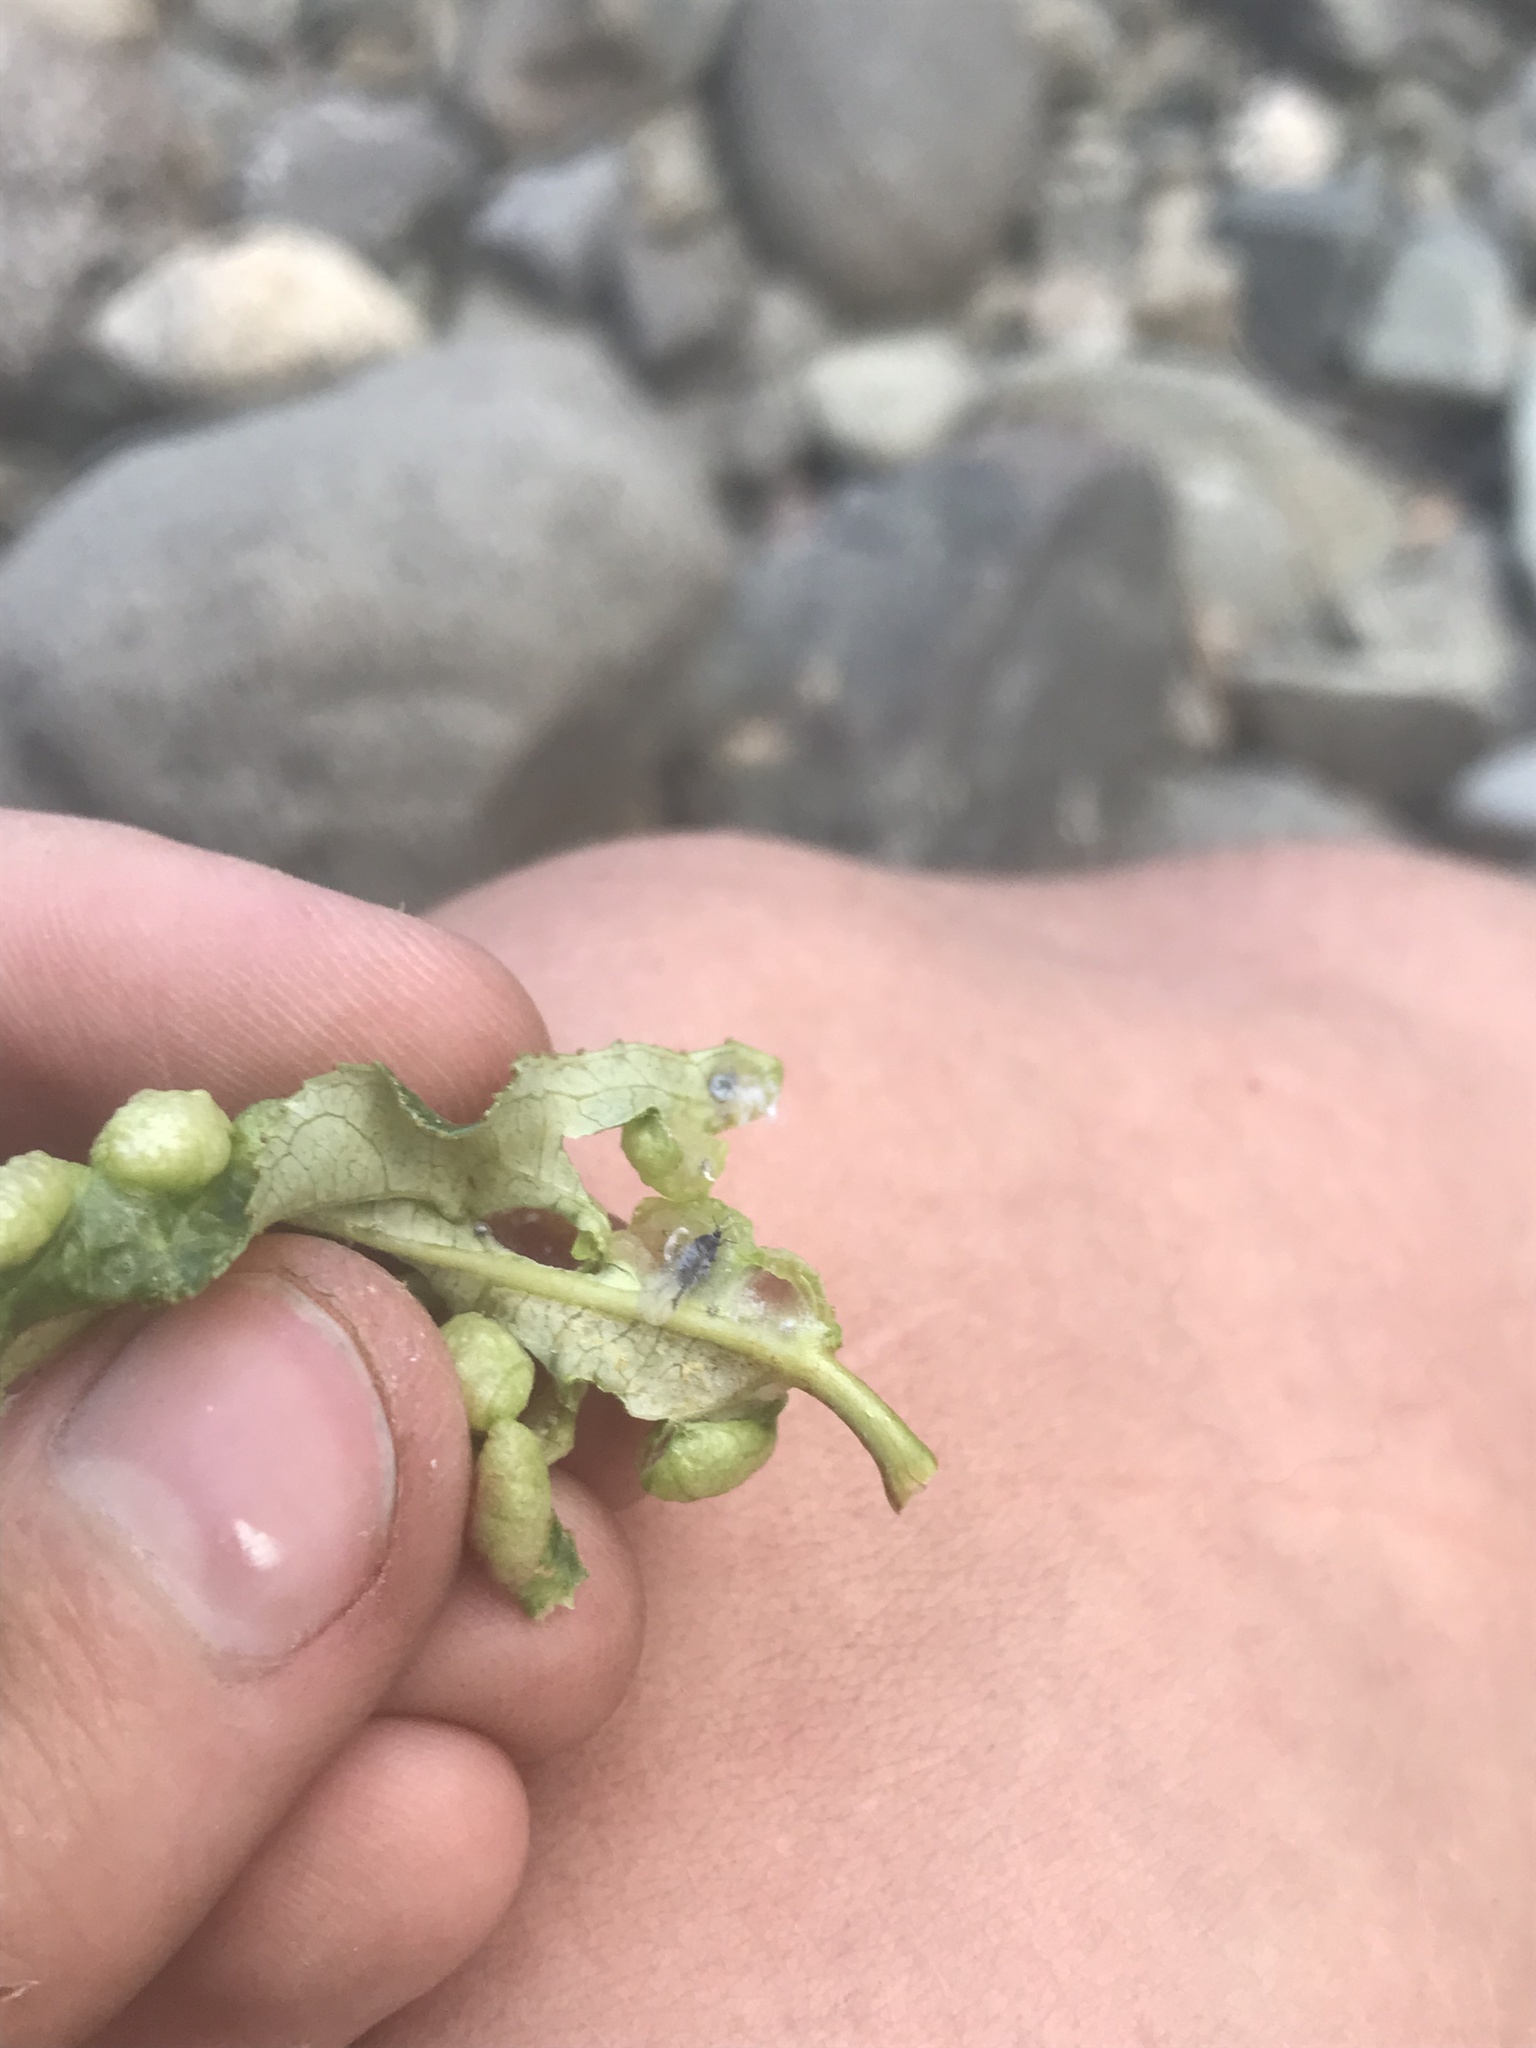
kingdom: Animalia
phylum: Arthropoda
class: Insecta
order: Hemiptera
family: Aphididae
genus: Thecabius
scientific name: Thecabius populimonilis
